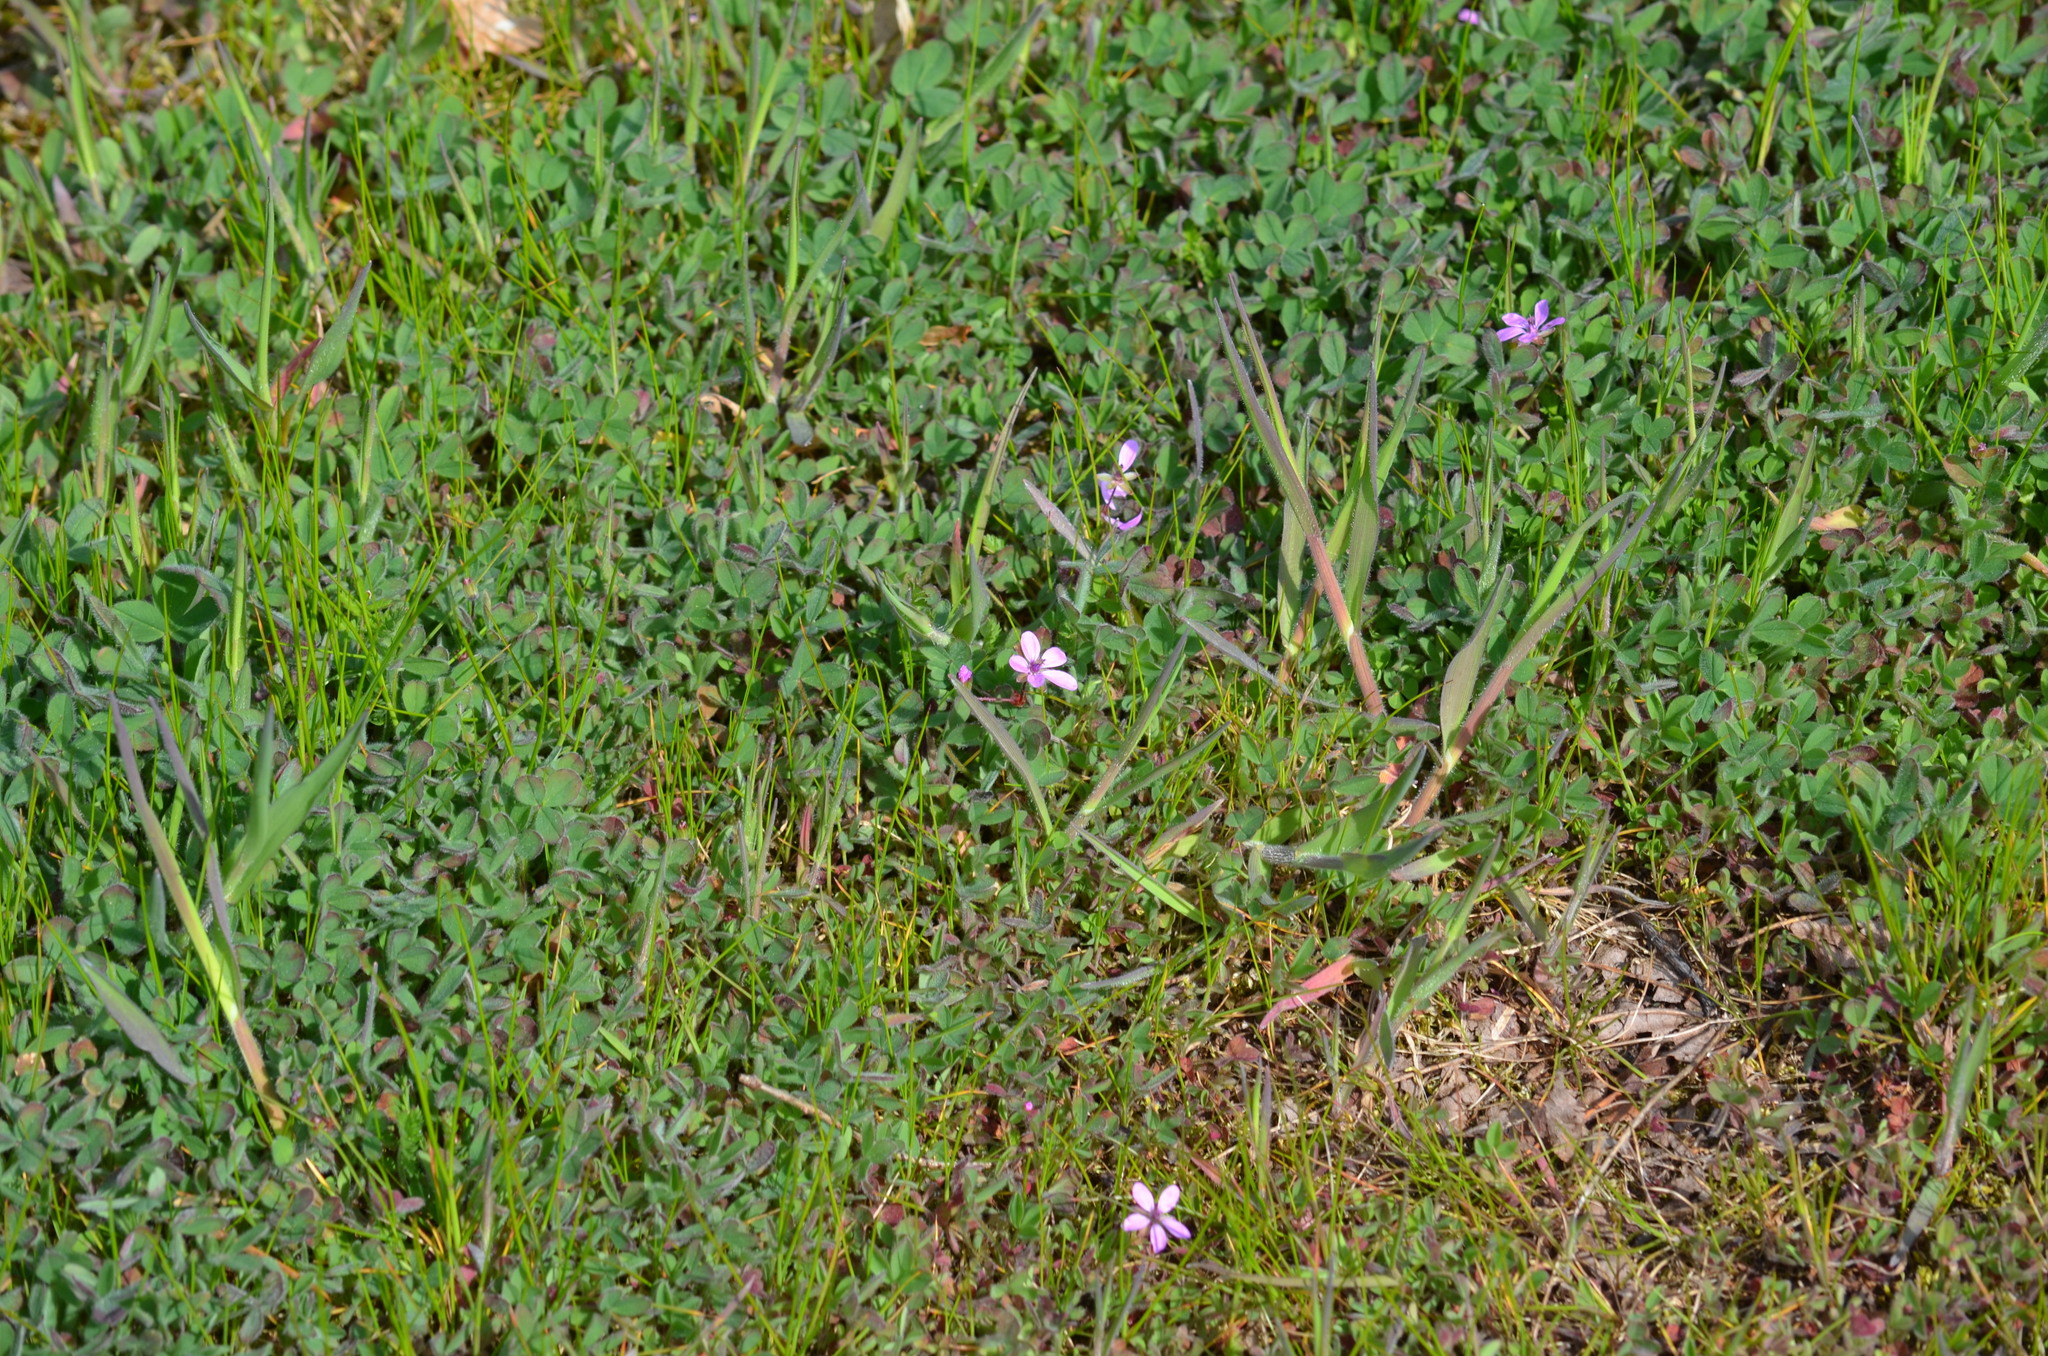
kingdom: Plantae
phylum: Tracheophyta
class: Magnoliopsida
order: Geraniales
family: Geraniaceae
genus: Erodium
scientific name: Erodium cicutarium
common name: Common stork's-bill
